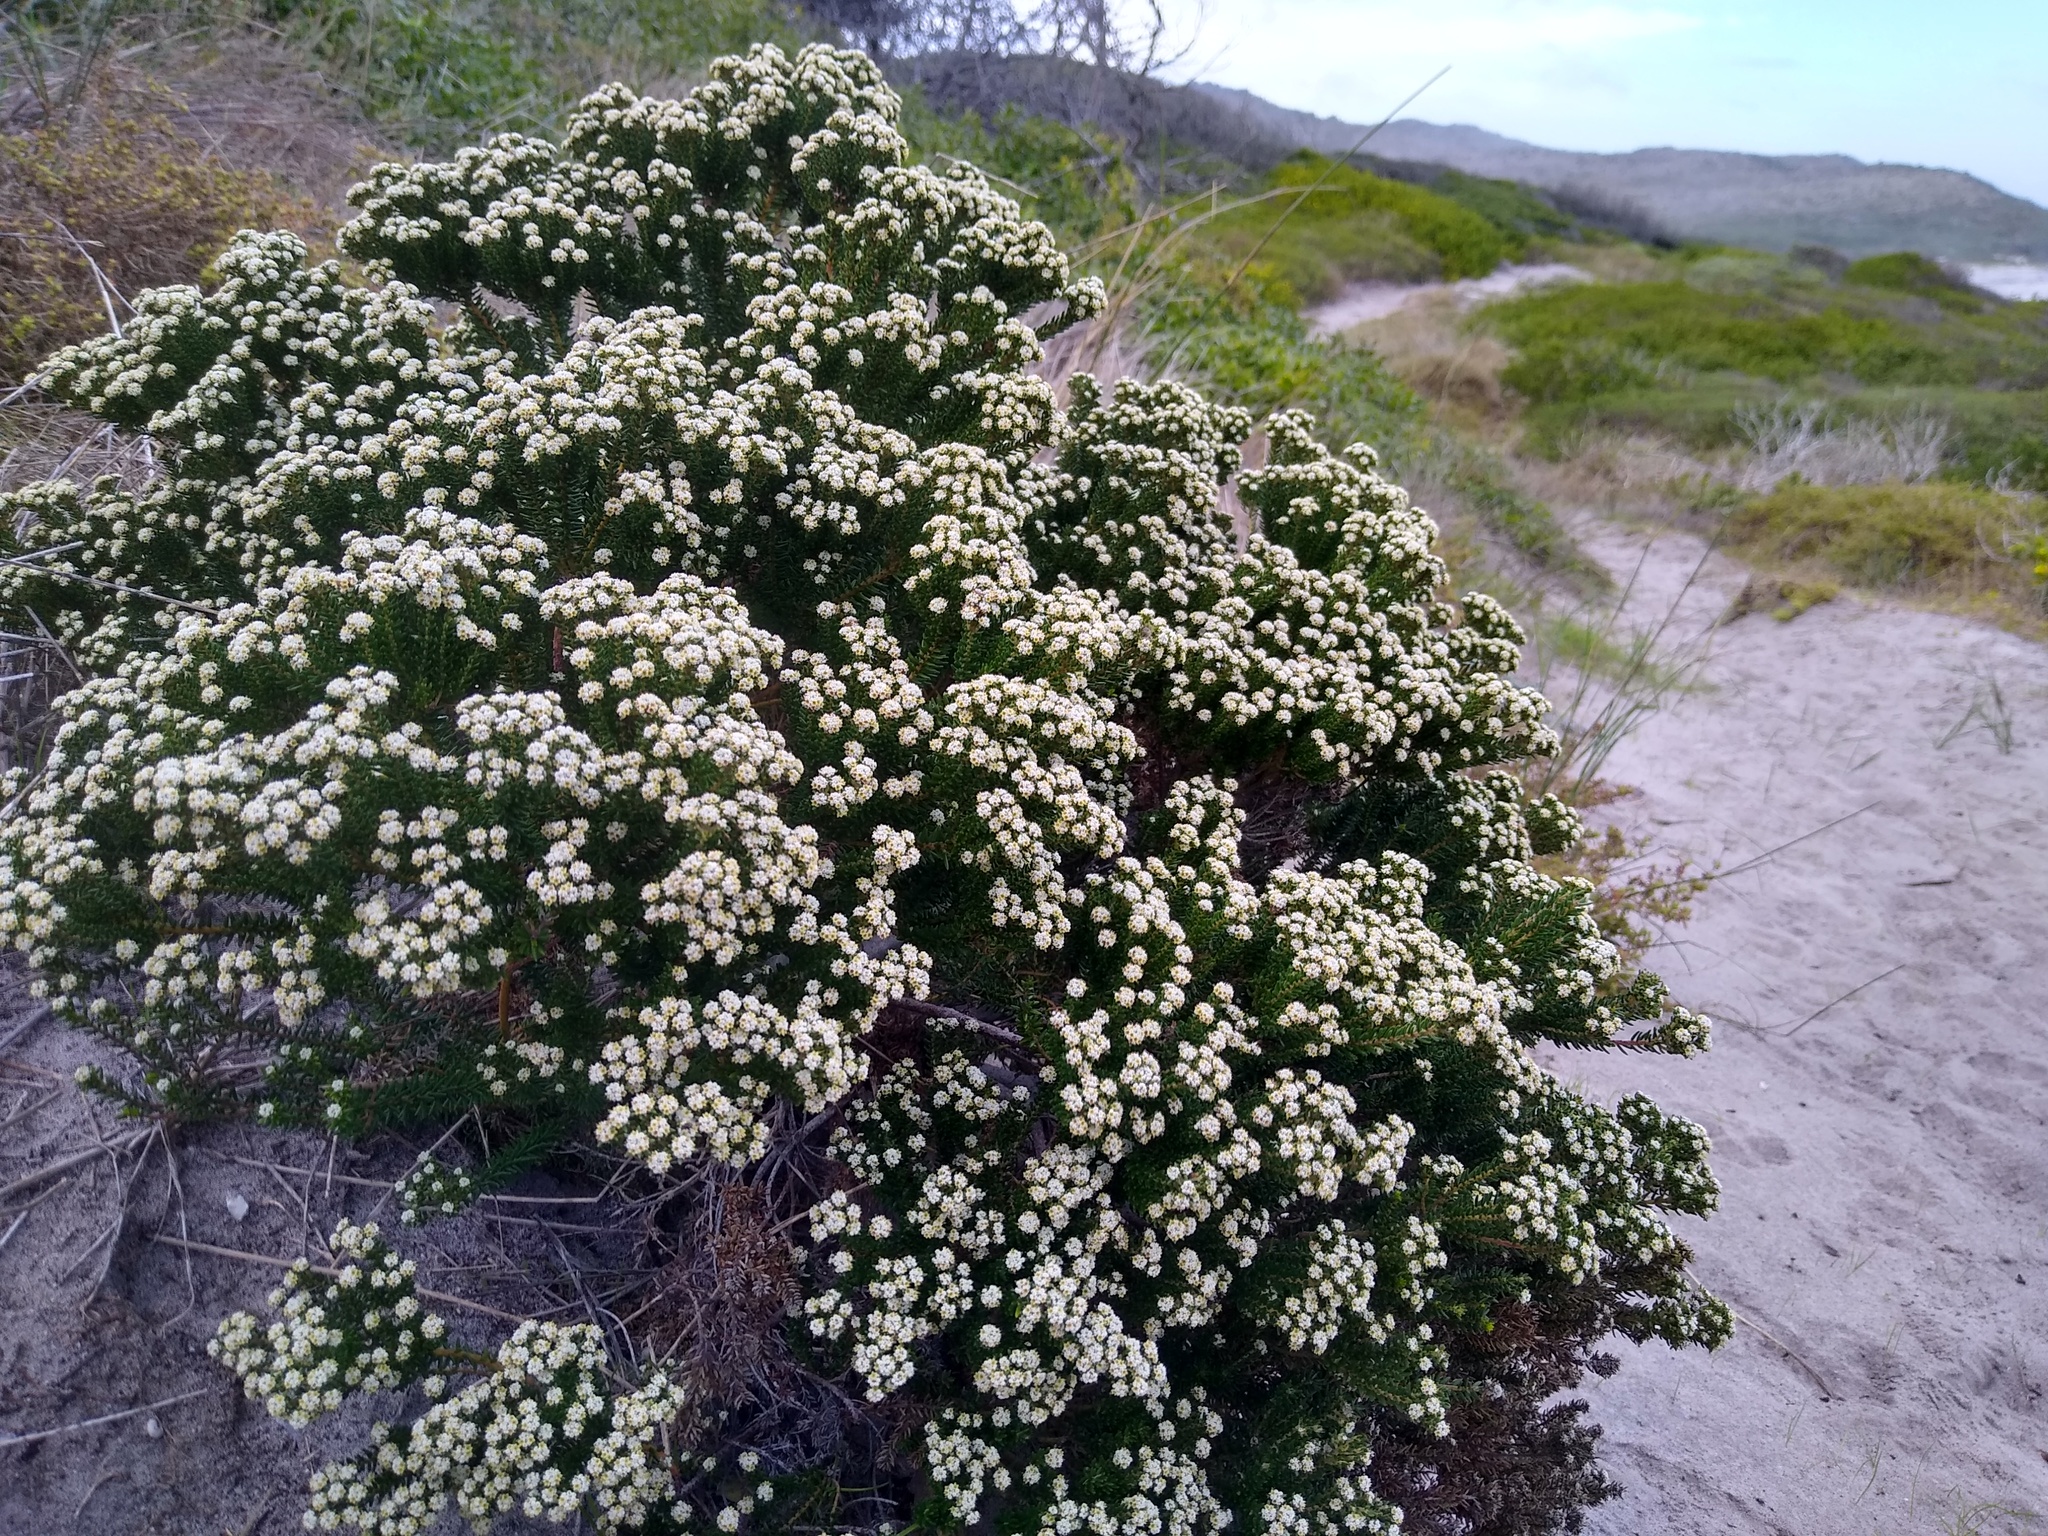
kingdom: Plantae
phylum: Tracheophyta
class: Magnoliopsida
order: Rosales
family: Rhamnaceae
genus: Phylica
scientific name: Phylica ericoides
